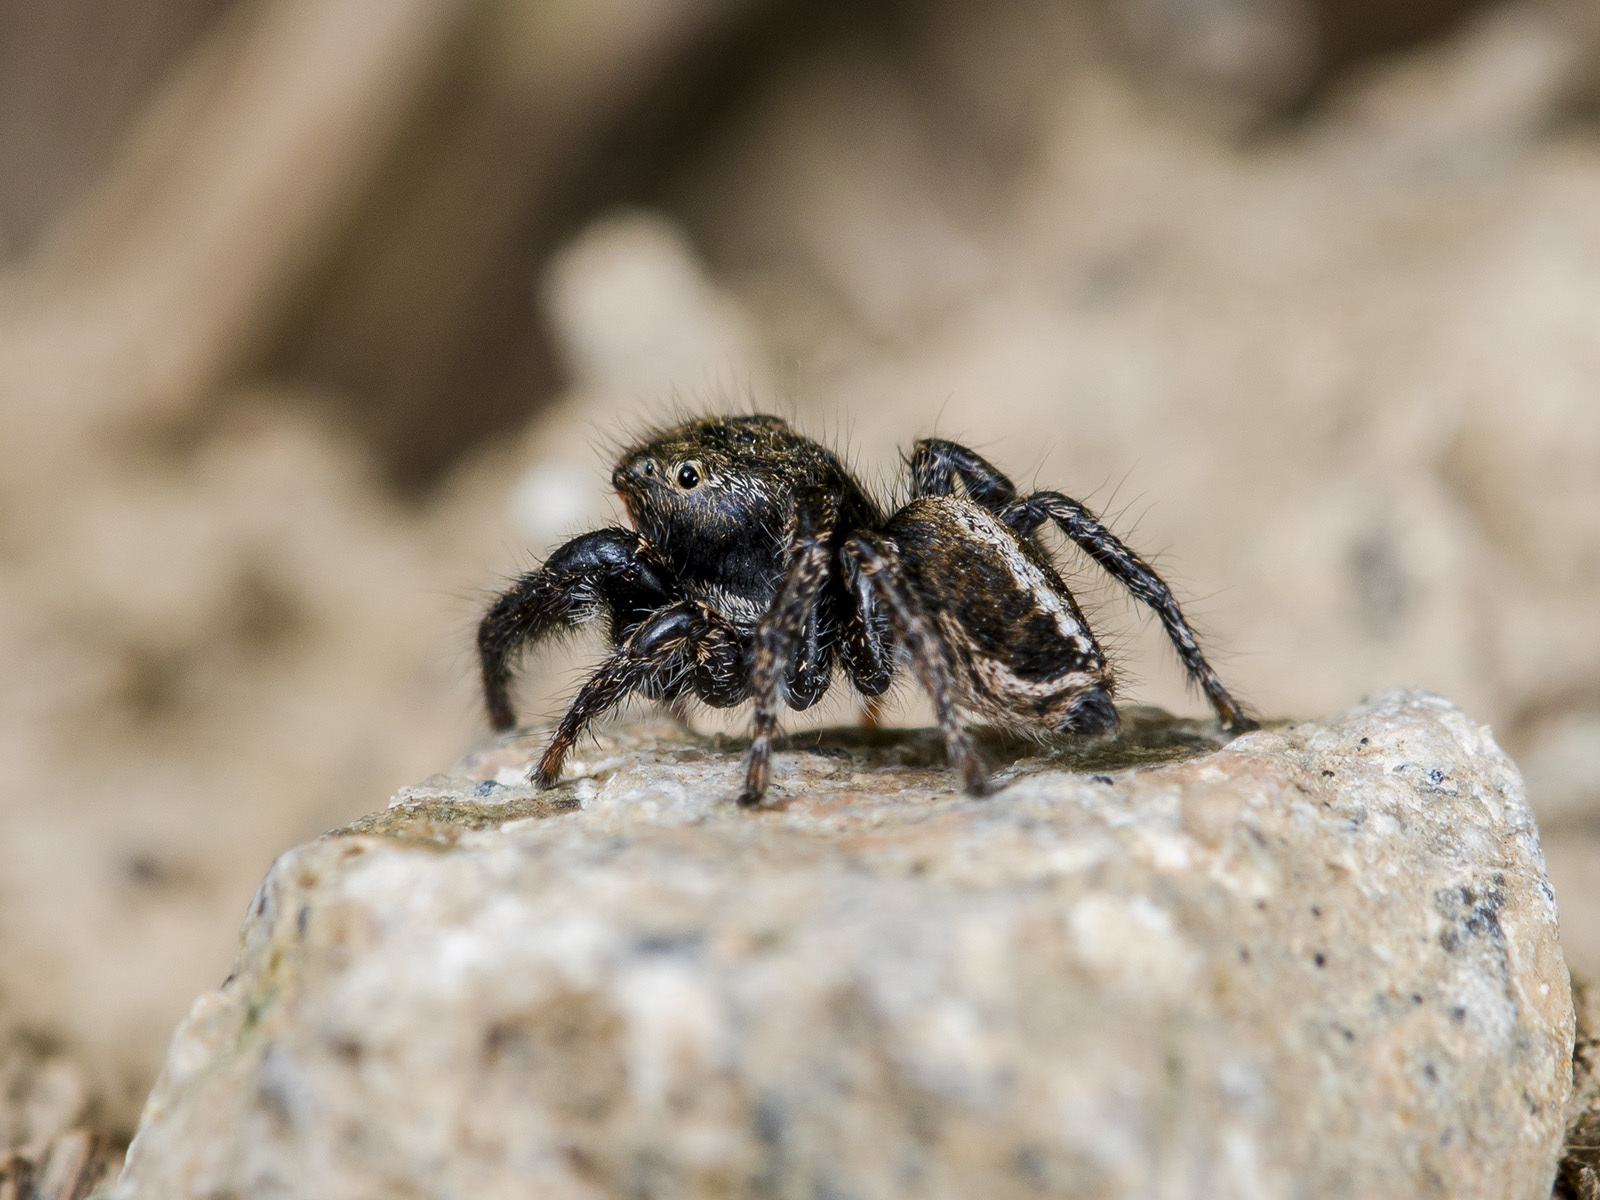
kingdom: Animalia
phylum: Arthropoda
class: Arachnida
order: Araneae
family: Salticidae
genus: Pellenes
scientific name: Pellenes sibiricus
